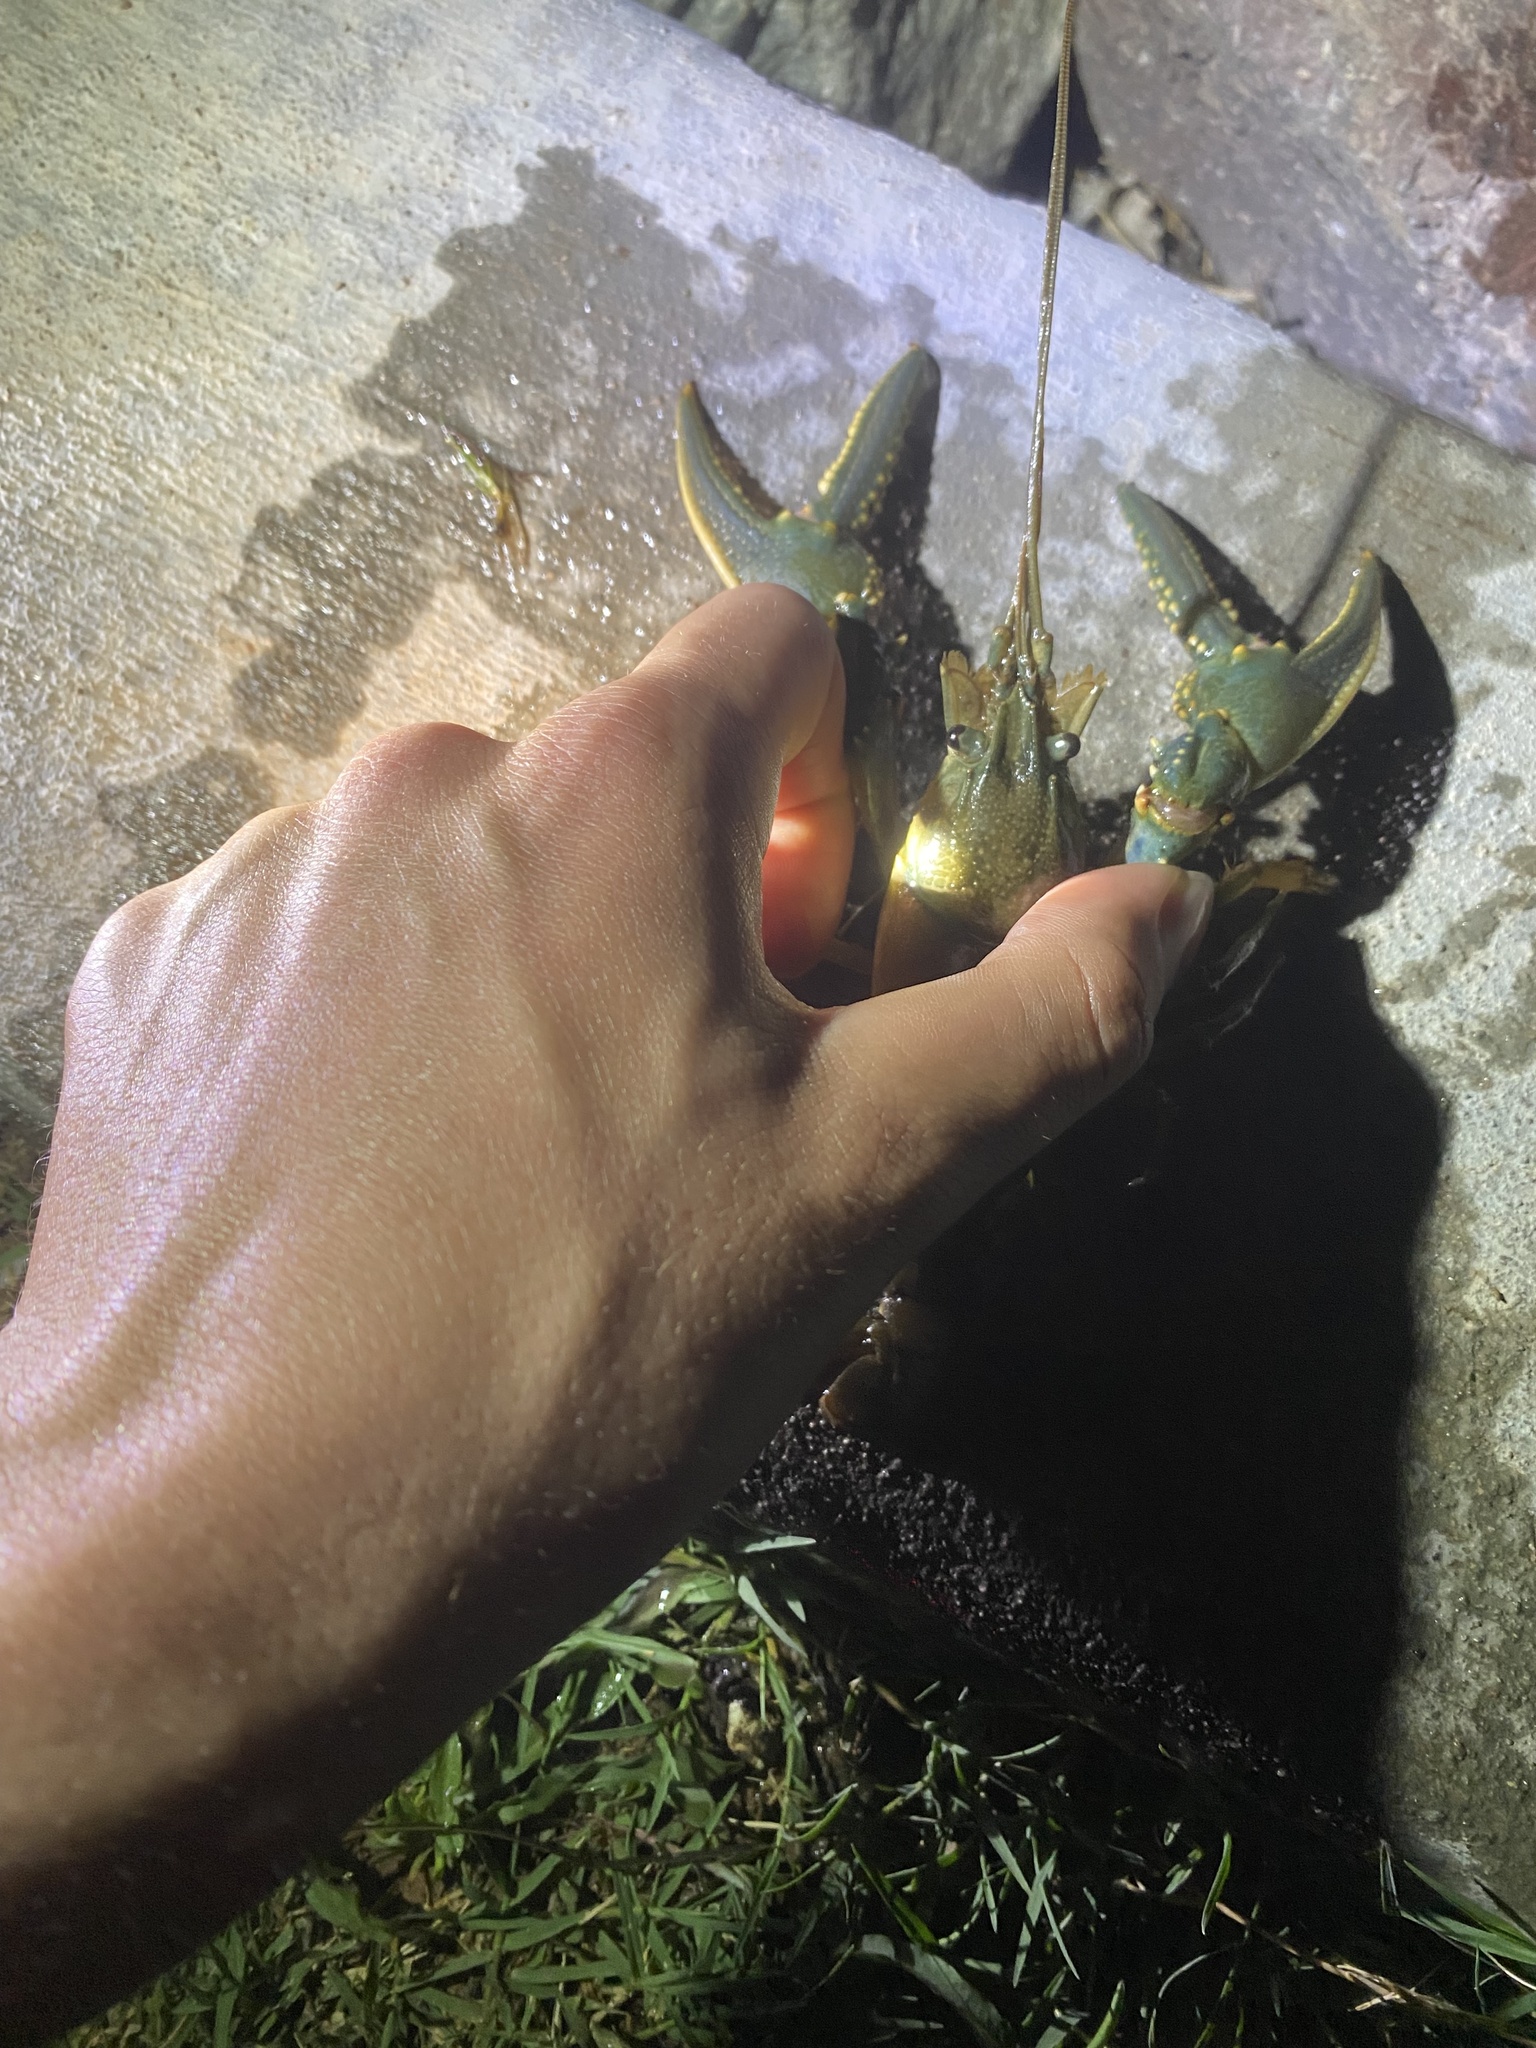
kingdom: Animalia
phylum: Arthropoda
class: Malacostraca
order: Decapoda
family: Cambaridae
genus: Faxonius
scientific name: Faxonius virilis
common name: Virile crayfish
